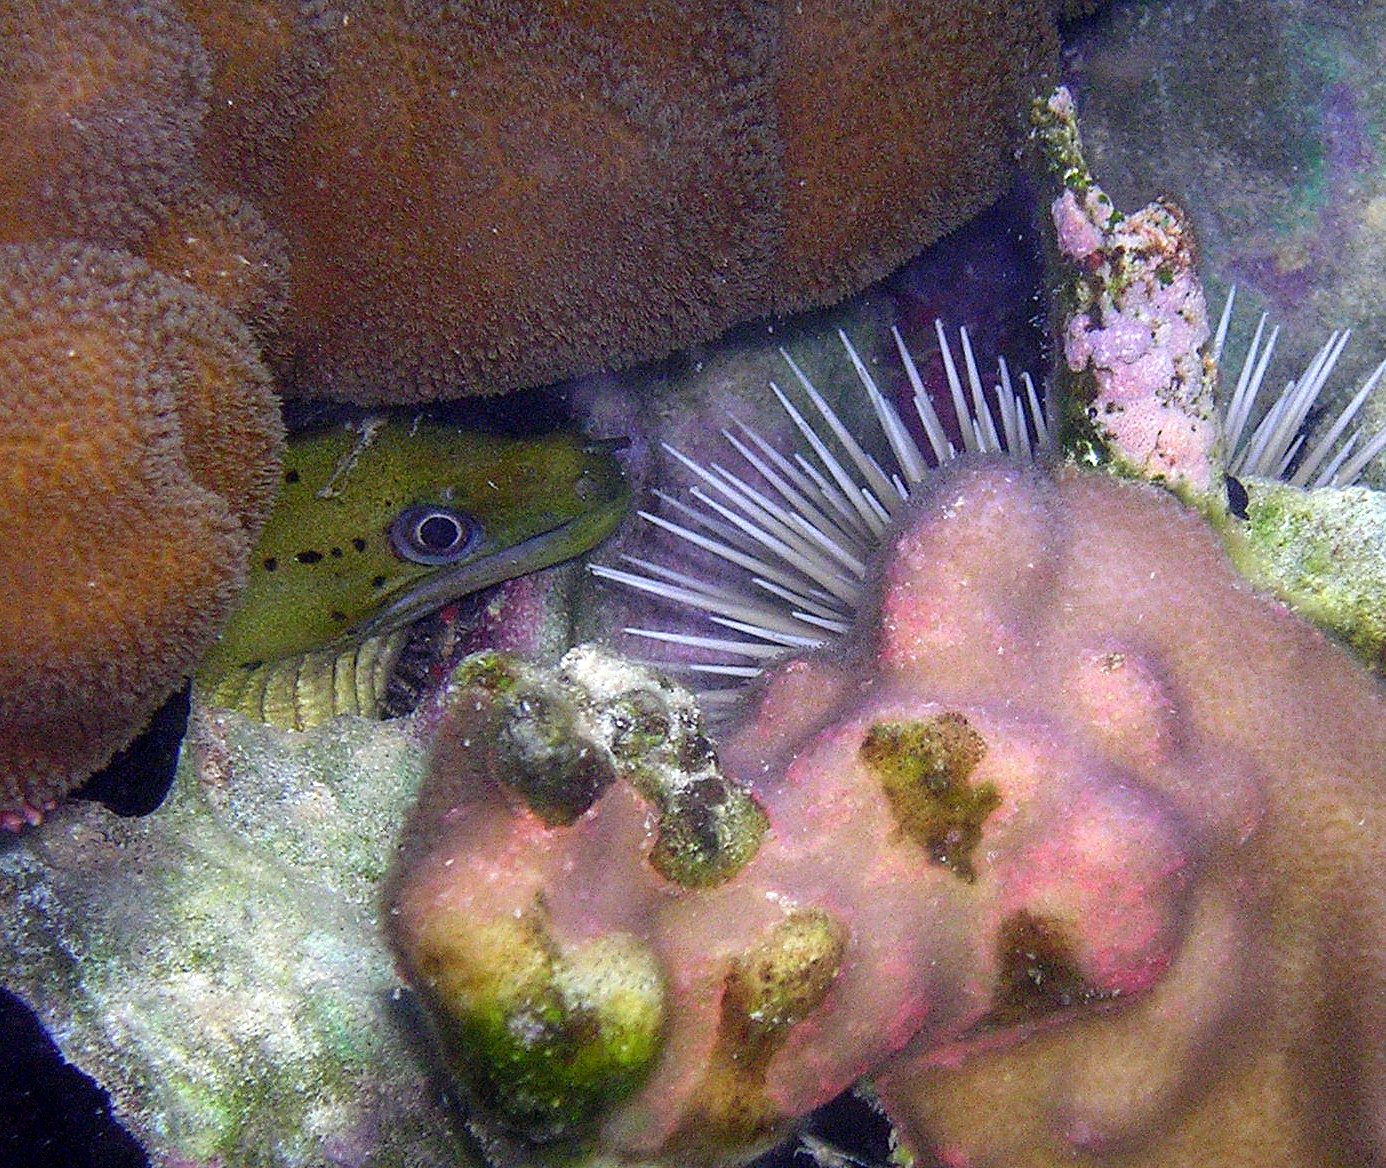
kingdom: Animalia
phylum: Chordata
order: Anguilliformes
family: Muraenidae
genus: Gymnothorax
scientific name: Gymnothorax fimbriatus
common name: Darkspotted moray
